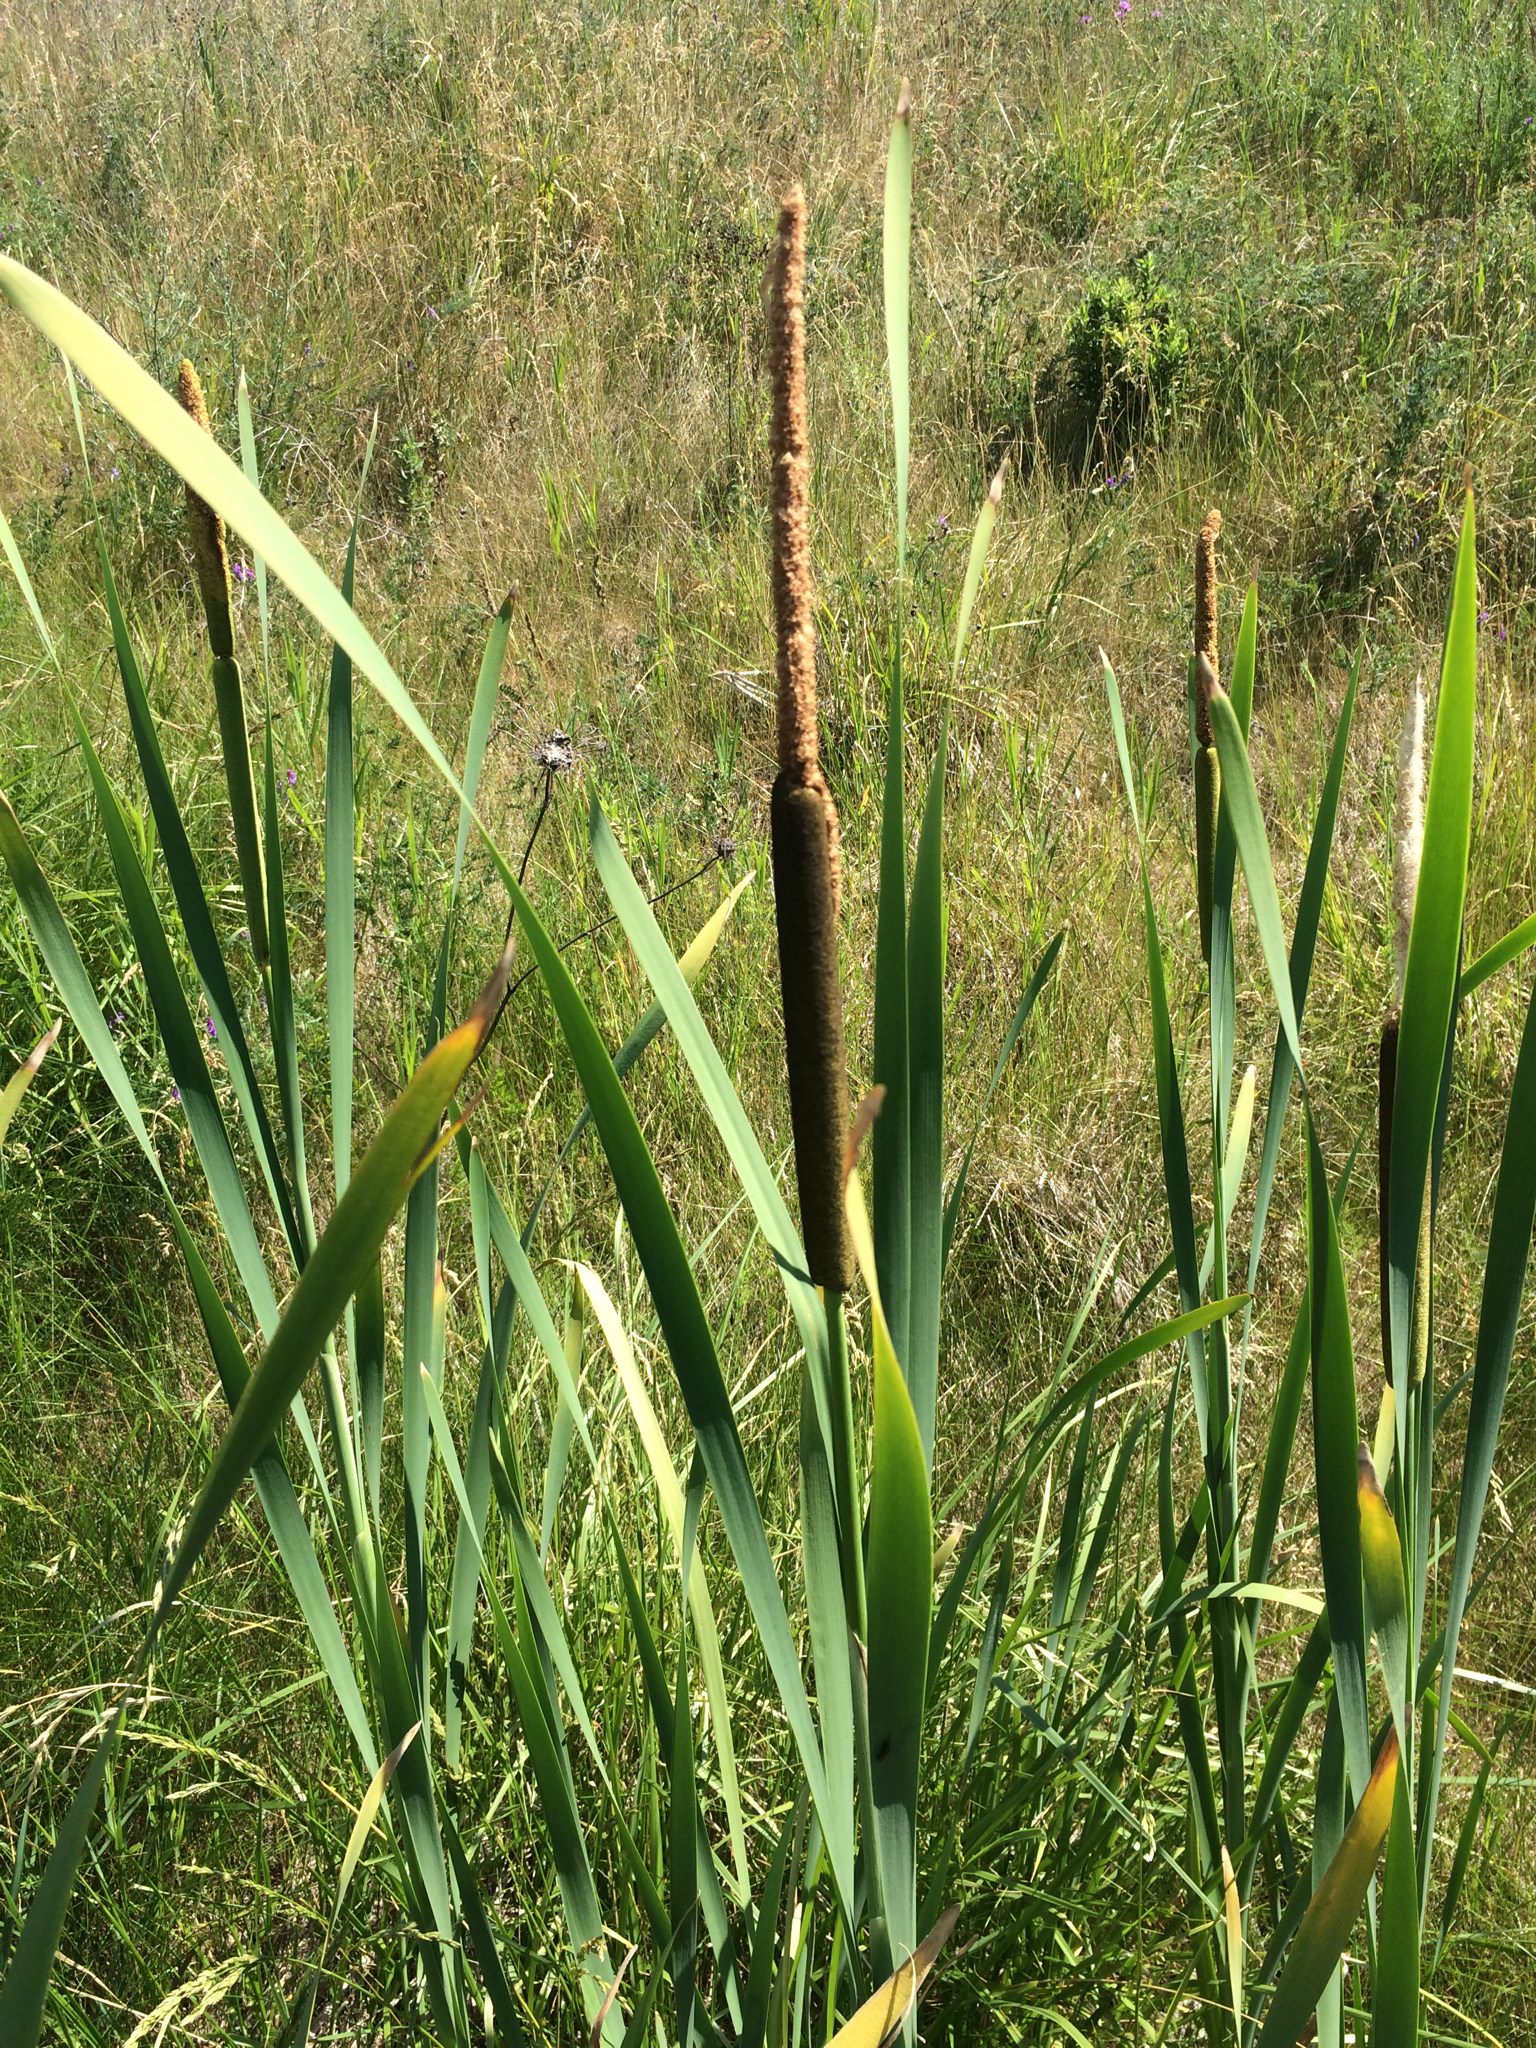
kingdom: Plantae
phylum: Tracheophyta
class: Liliopsida
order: Poales
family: Typhaceae
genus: Typha
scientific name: Typha latifolia
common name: Broadleaf cattail
